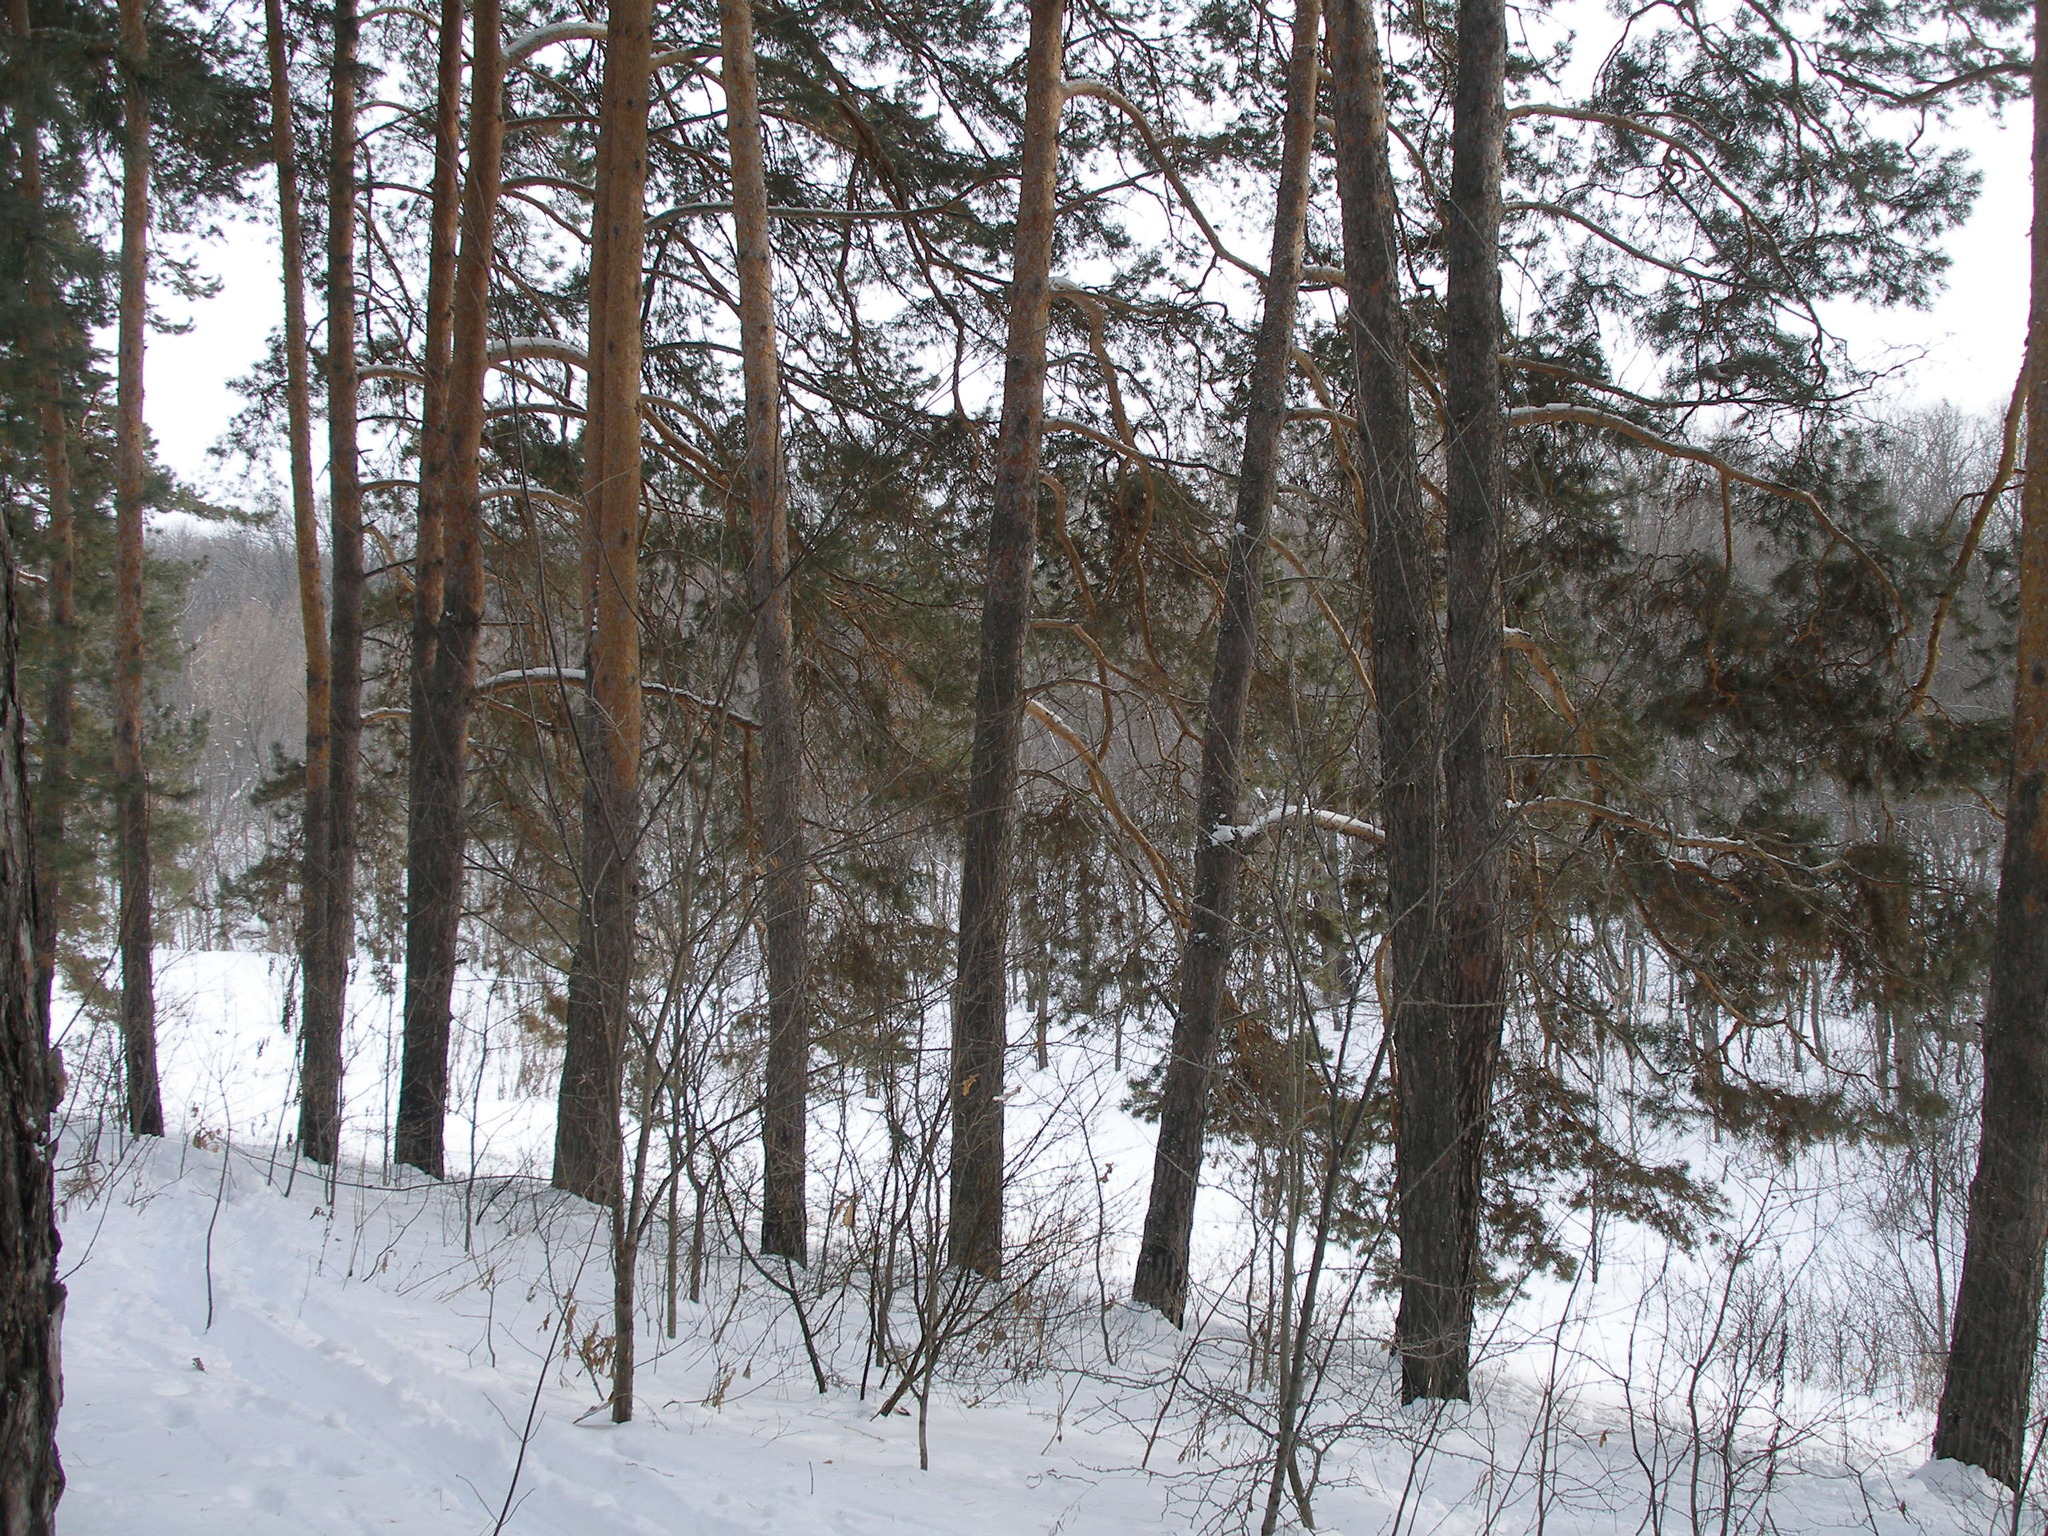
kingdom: Plantae
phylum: Tracheophyta
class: Pinopsida
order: Pinales
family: Pinaceae
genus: Pinus
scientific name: Pinus sylvestris
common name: Scots pine
